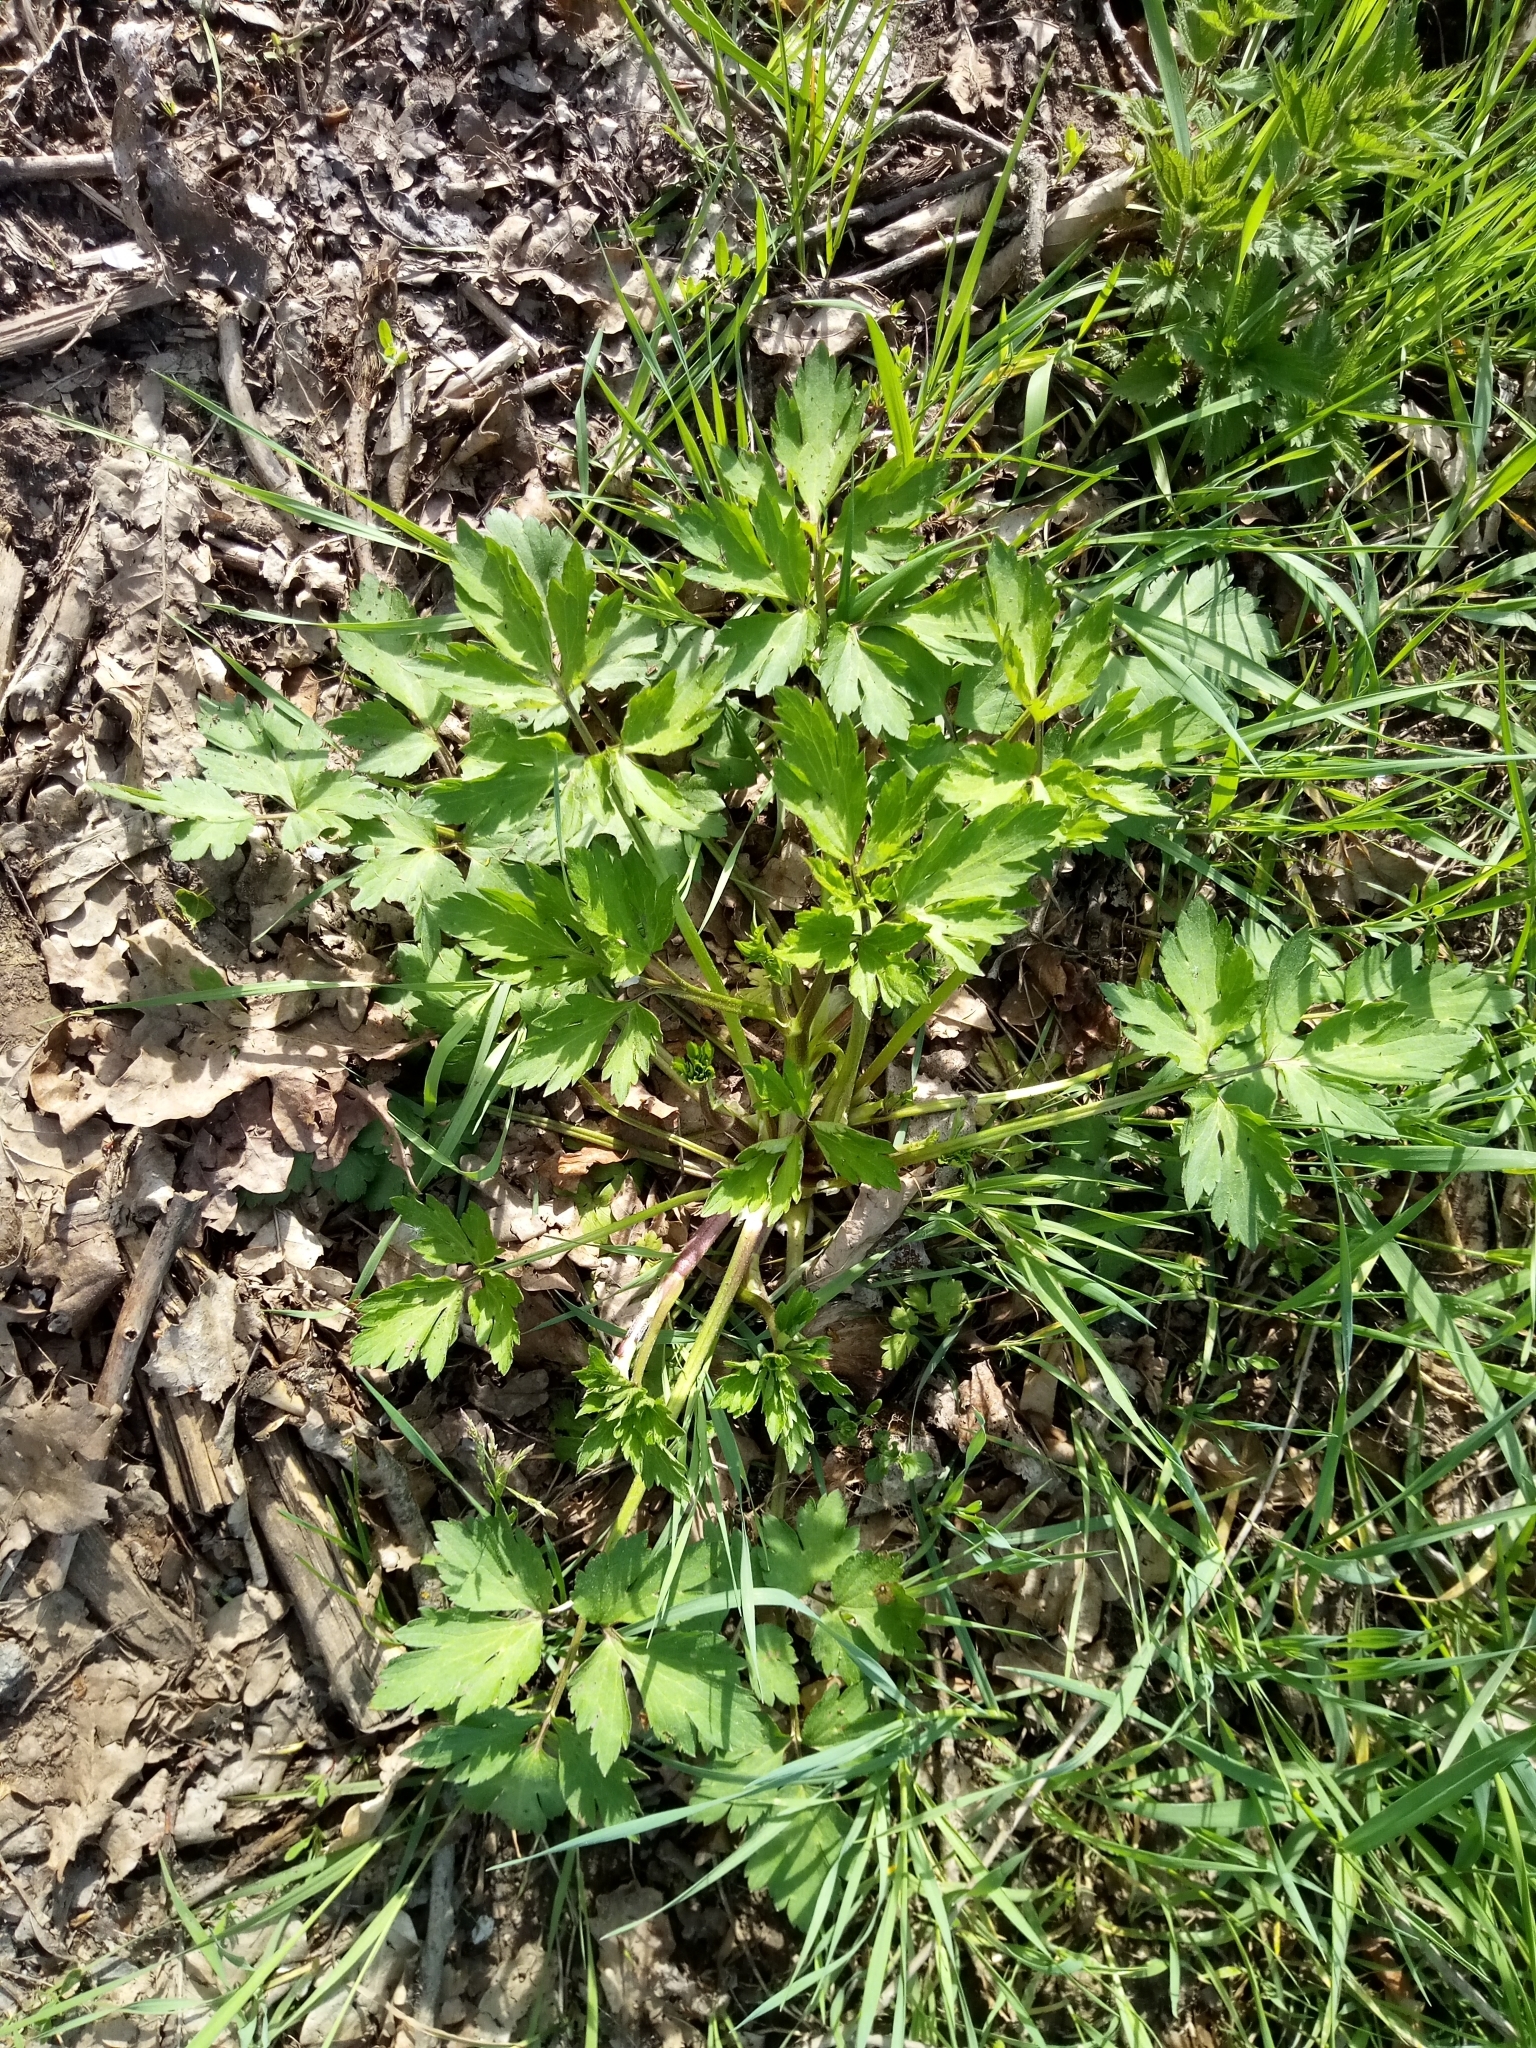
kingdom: Plantae
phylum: Tracheophyta
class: Magnoliopsida
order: Ranunculales
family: Ranunculaceae
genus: Ranunculus
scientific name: Ranunculus repens
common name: Creeping buttercup
